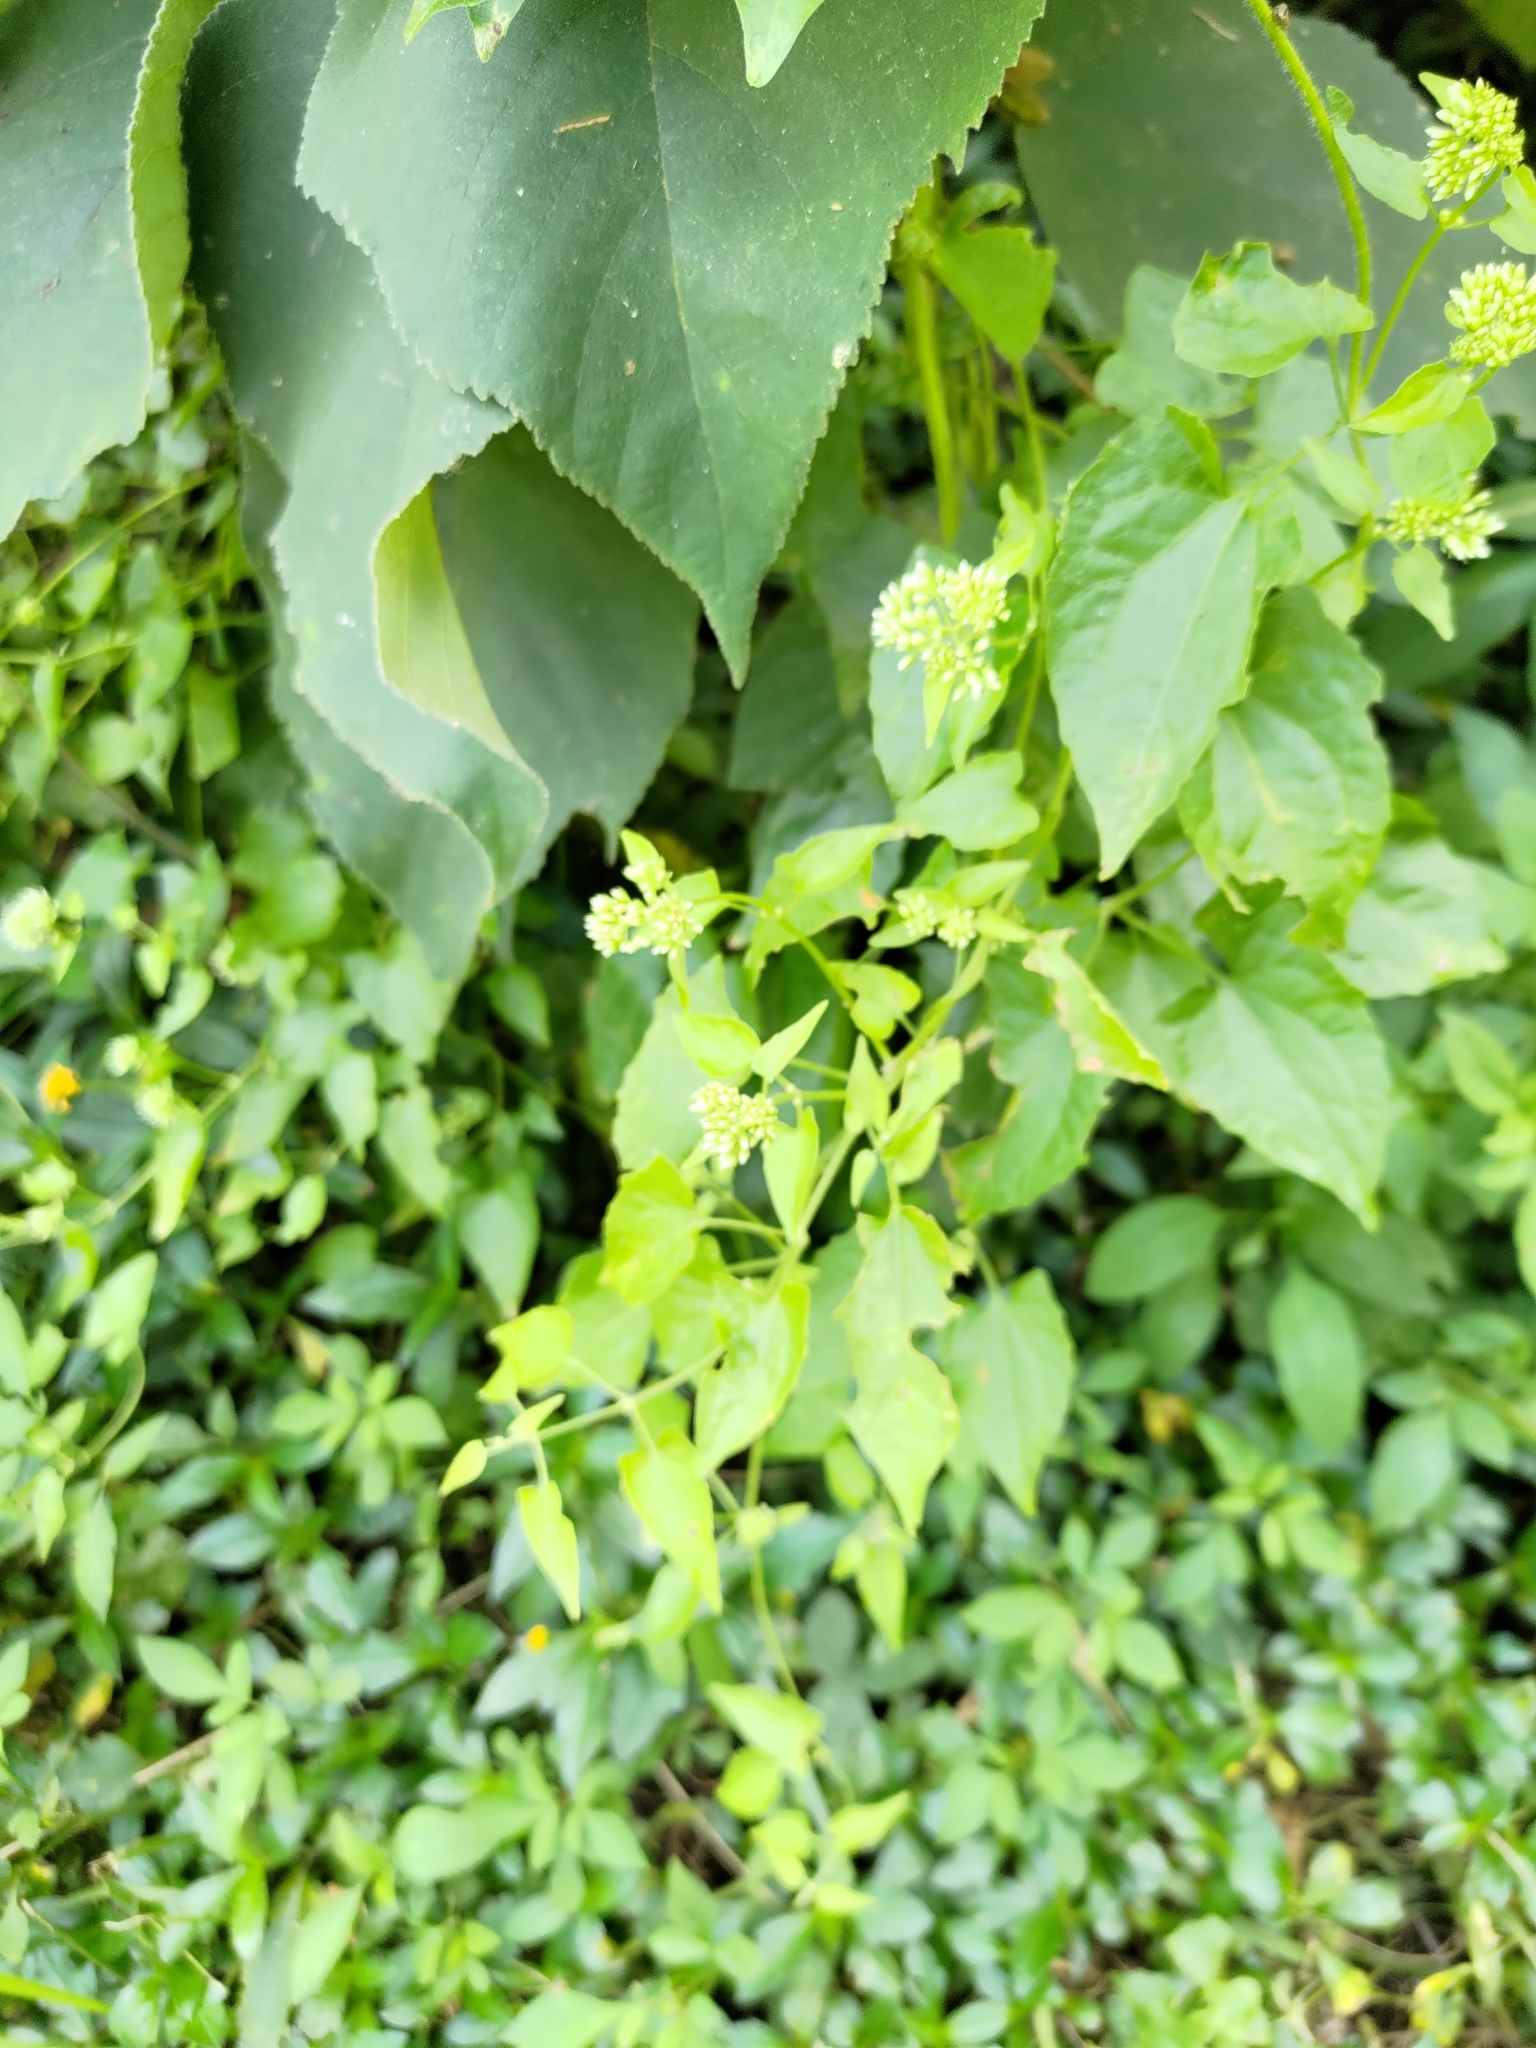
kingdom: Plantae
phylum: Tracheophyta
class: Magnoliopsida
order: Asterales
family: Asteraceae
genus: Mikania
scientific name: Mikania micrantha
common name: Mile-a-minute
